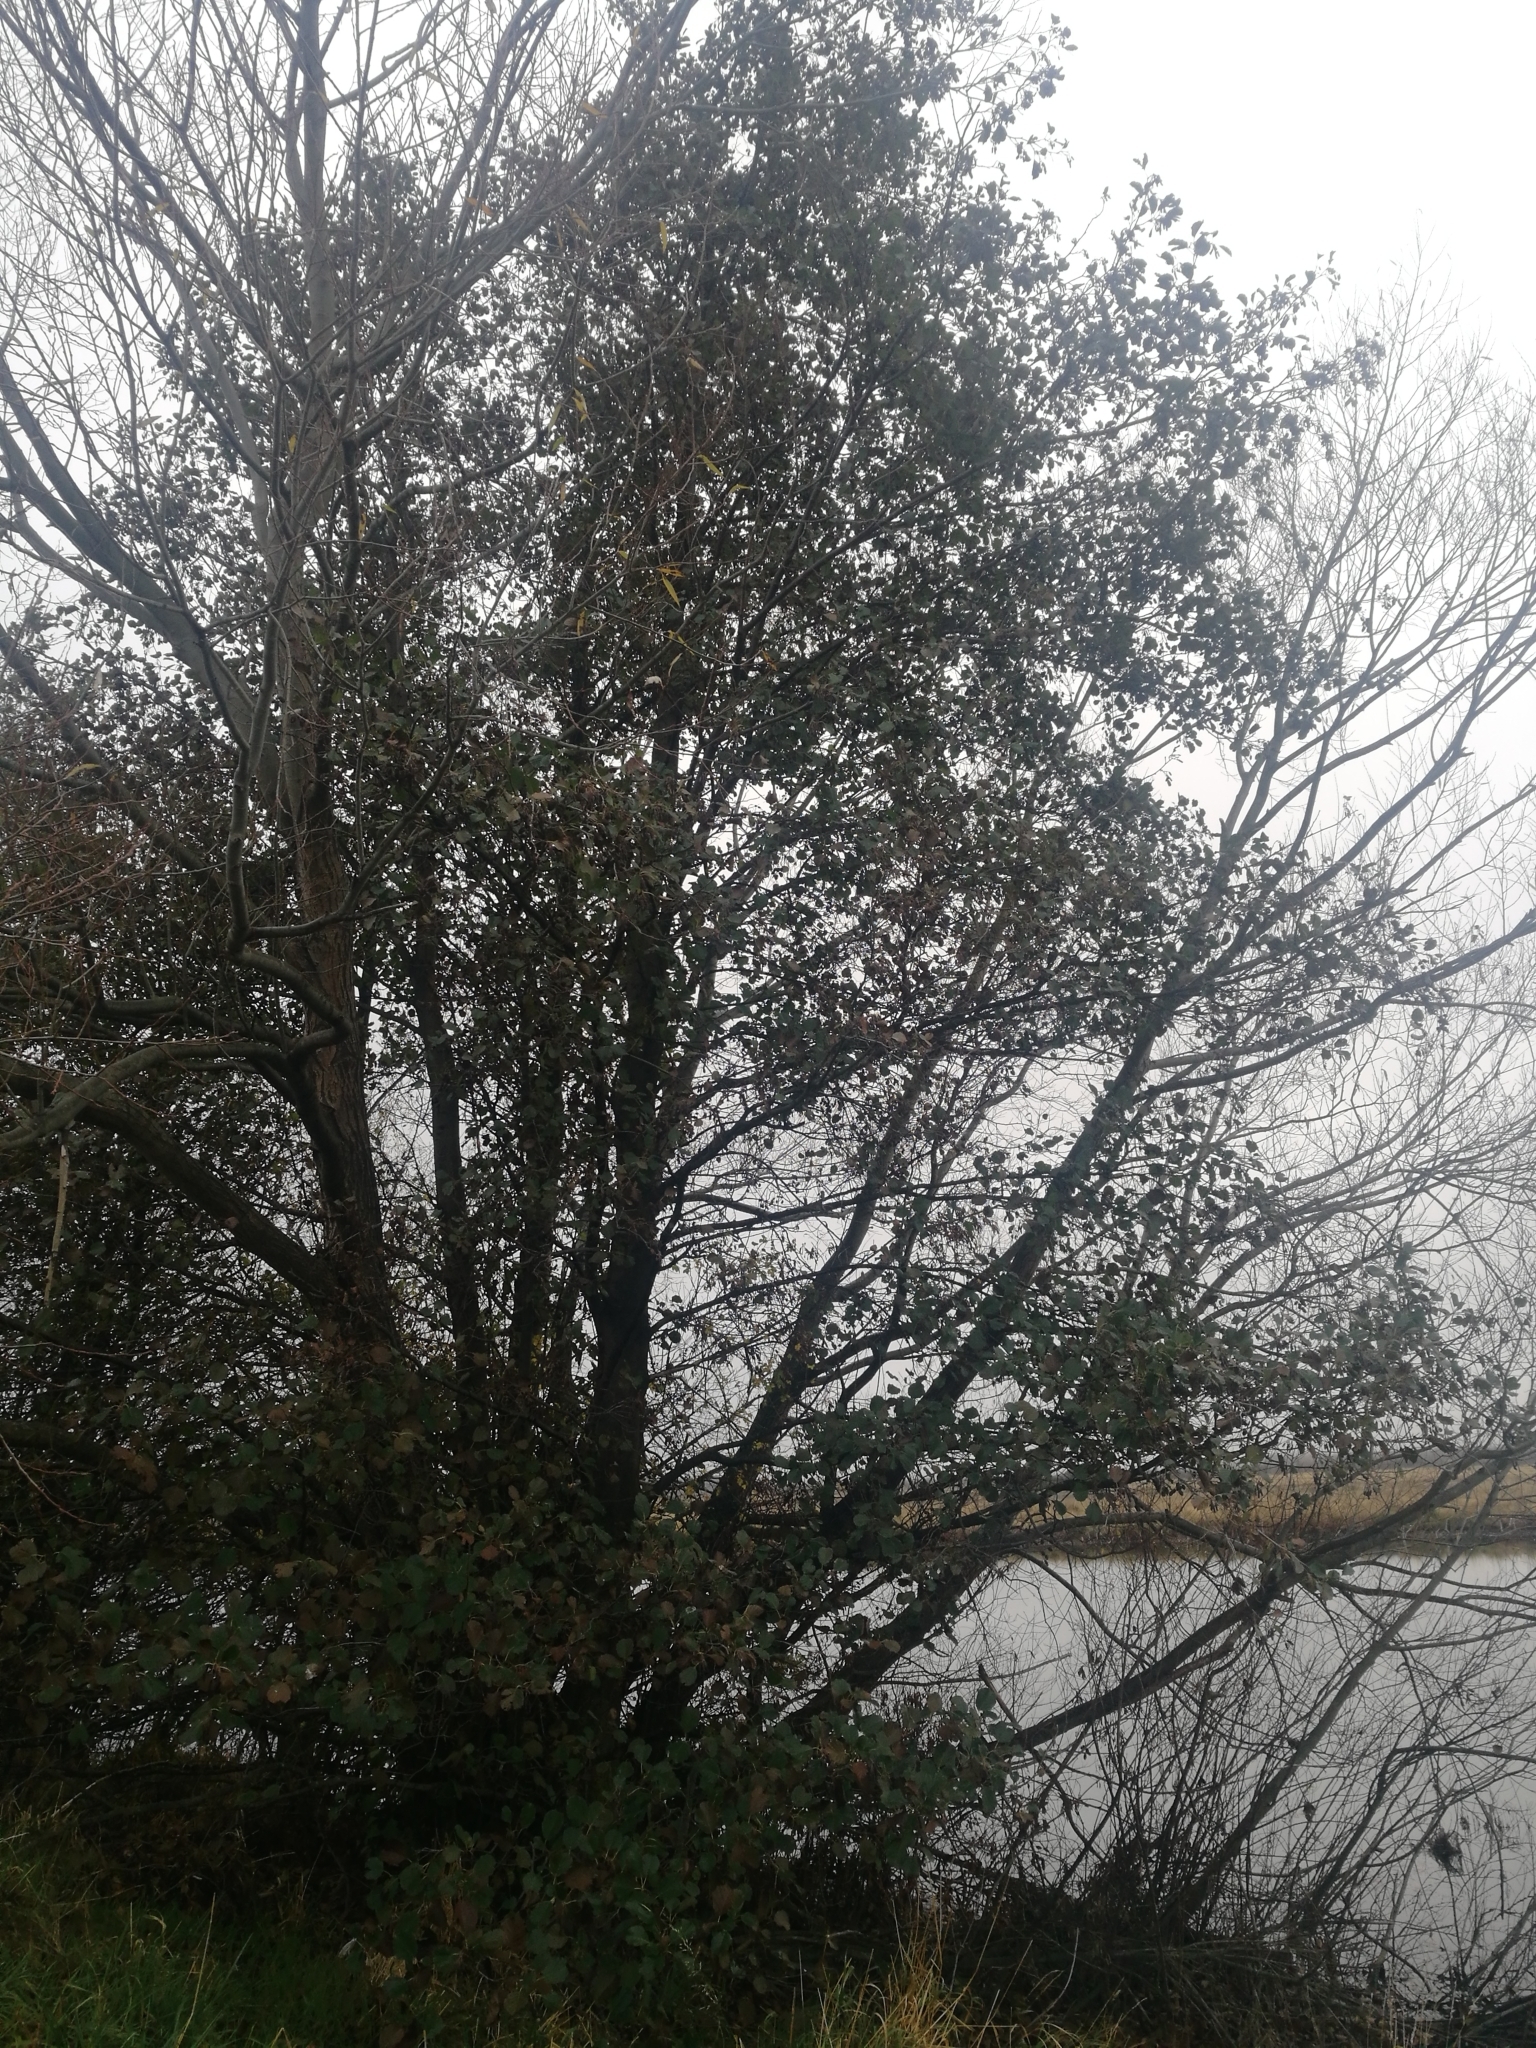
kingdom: Plantae
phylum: Tracheophyta
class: Magnoliopsida
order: Fagales
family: Betulaceae
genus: Alnus
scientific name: Alnus glutinosa
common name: Black alder
